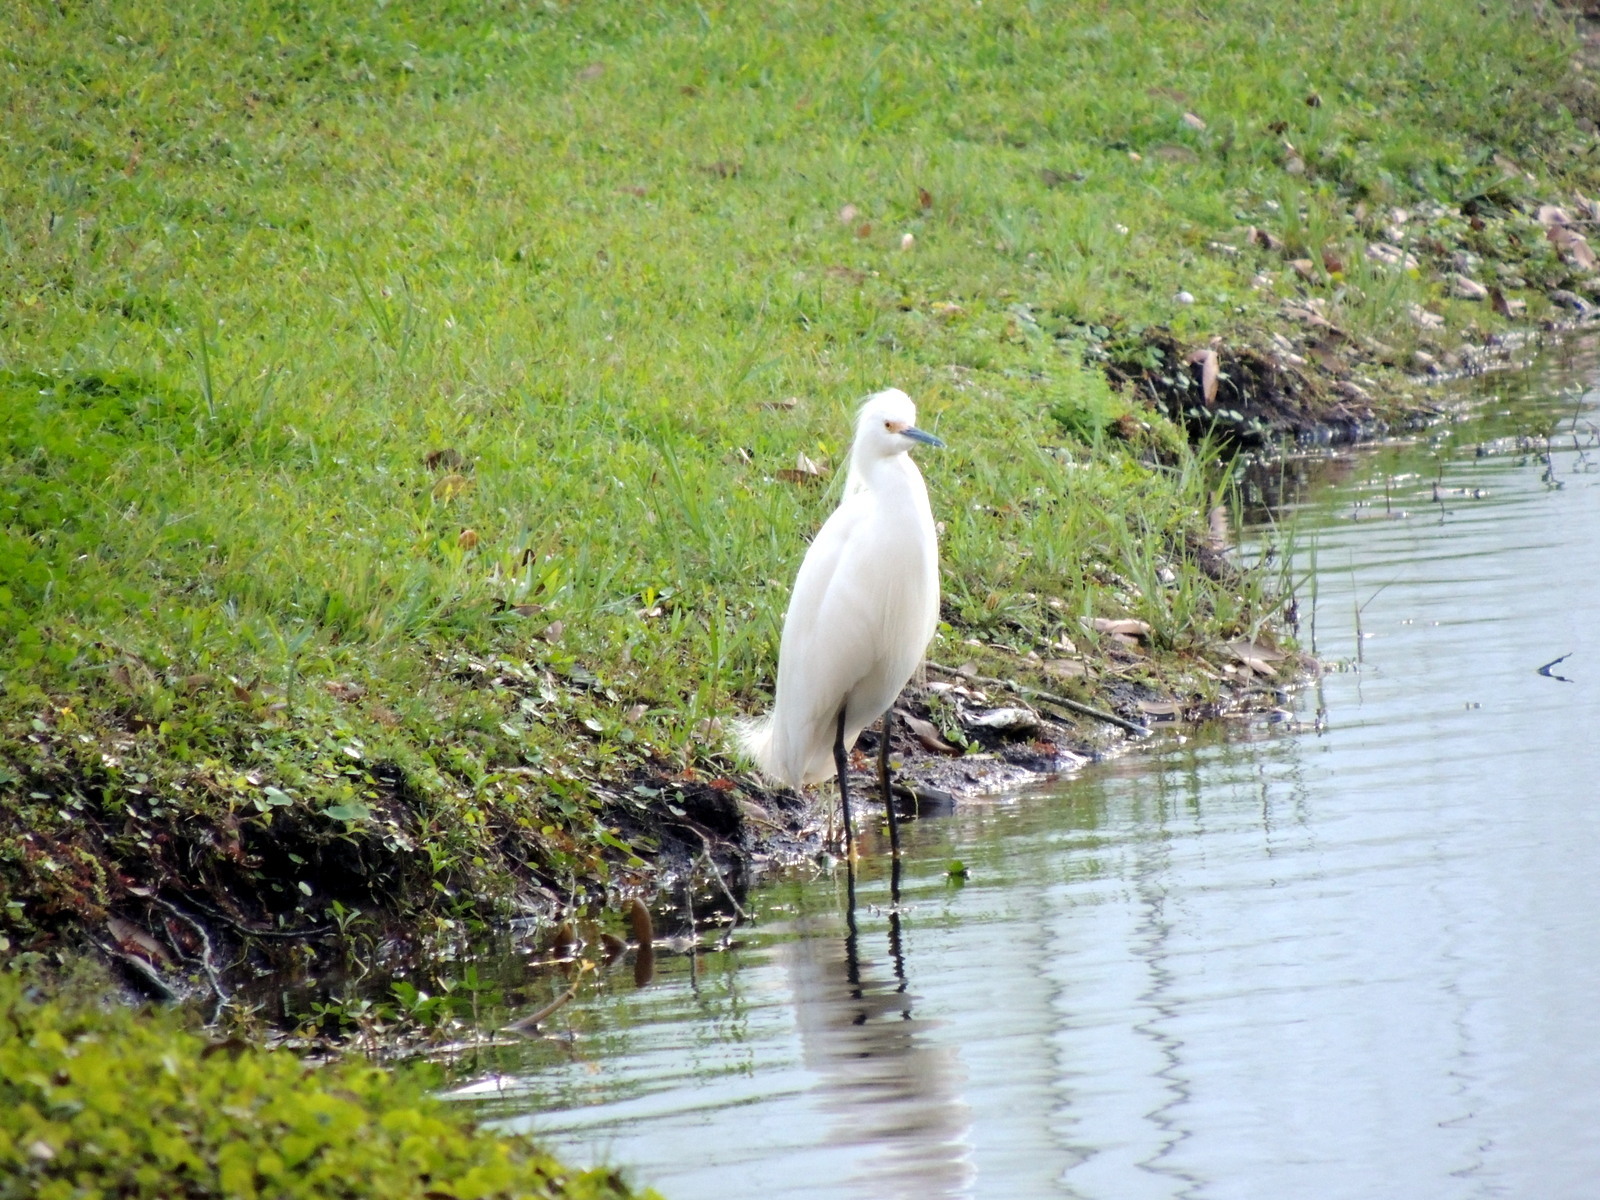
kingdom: Animalia
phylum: Chordata
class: Aves
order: Pelecaniformes
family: Ardeidae
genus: Egretta
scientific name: Egretta thula
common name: Snowy egret
